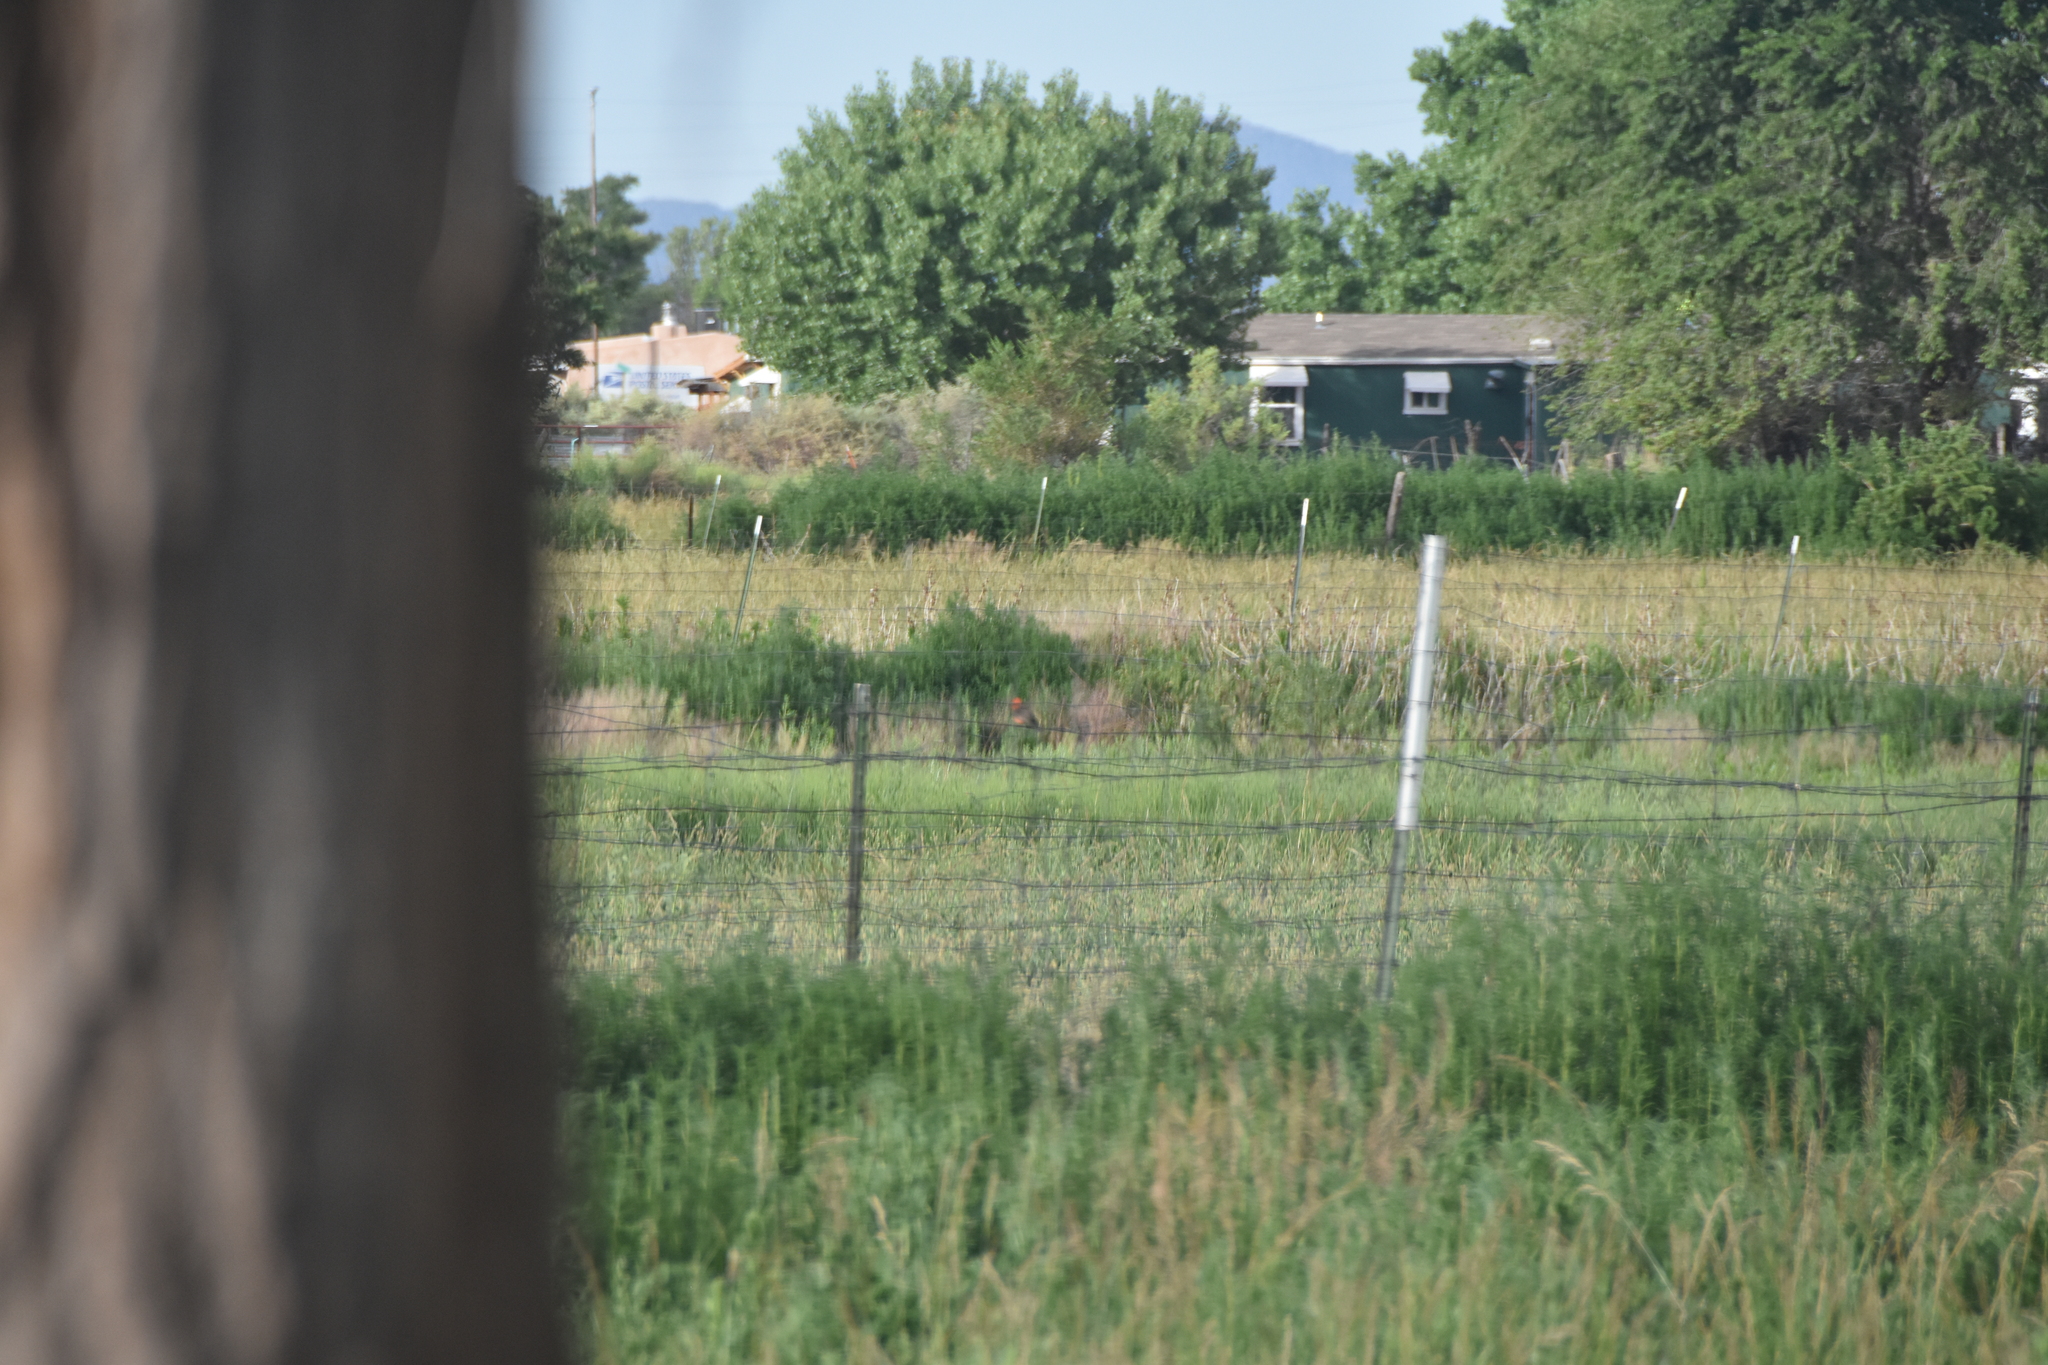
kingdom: Animalia
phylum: Chordata
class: Aves
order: Passeriformes
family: Tyrannidae
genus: Pyrocephalus
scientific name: Pyrocephalus rubinus
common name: Vermilion flycatcher
